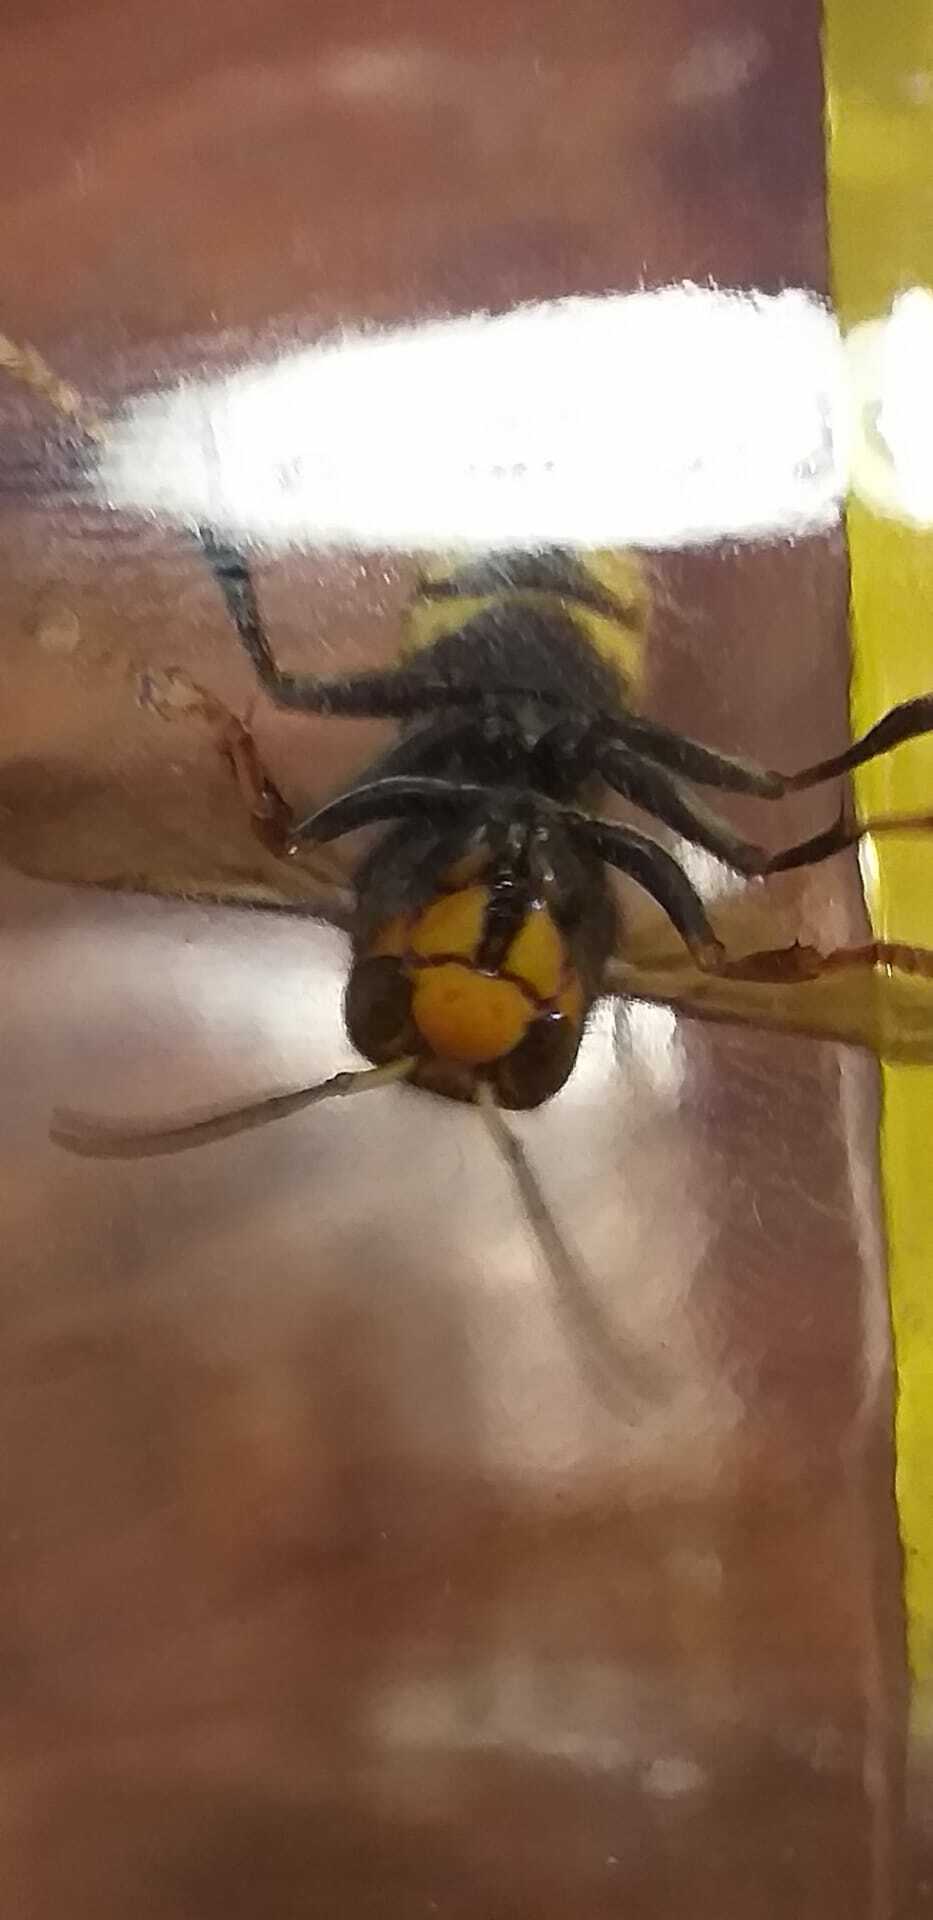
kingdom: Animalia
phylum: Arthropoda
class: Insecta
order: Hymenoptera
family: Vespidae
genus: Vespa
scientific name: Vespa velutina
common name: Asian hornet
